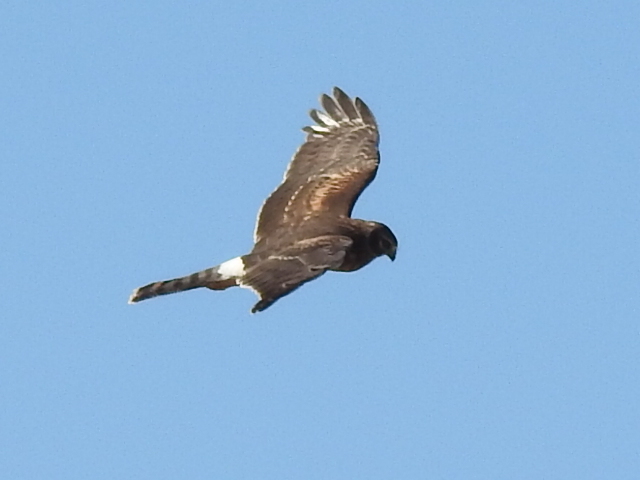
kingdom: Animalia
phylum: Chordata
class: Aves
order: Accipitriformes
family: Accipitridae
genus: Circus
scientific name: Circus cyaneus
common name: Hen harrier
